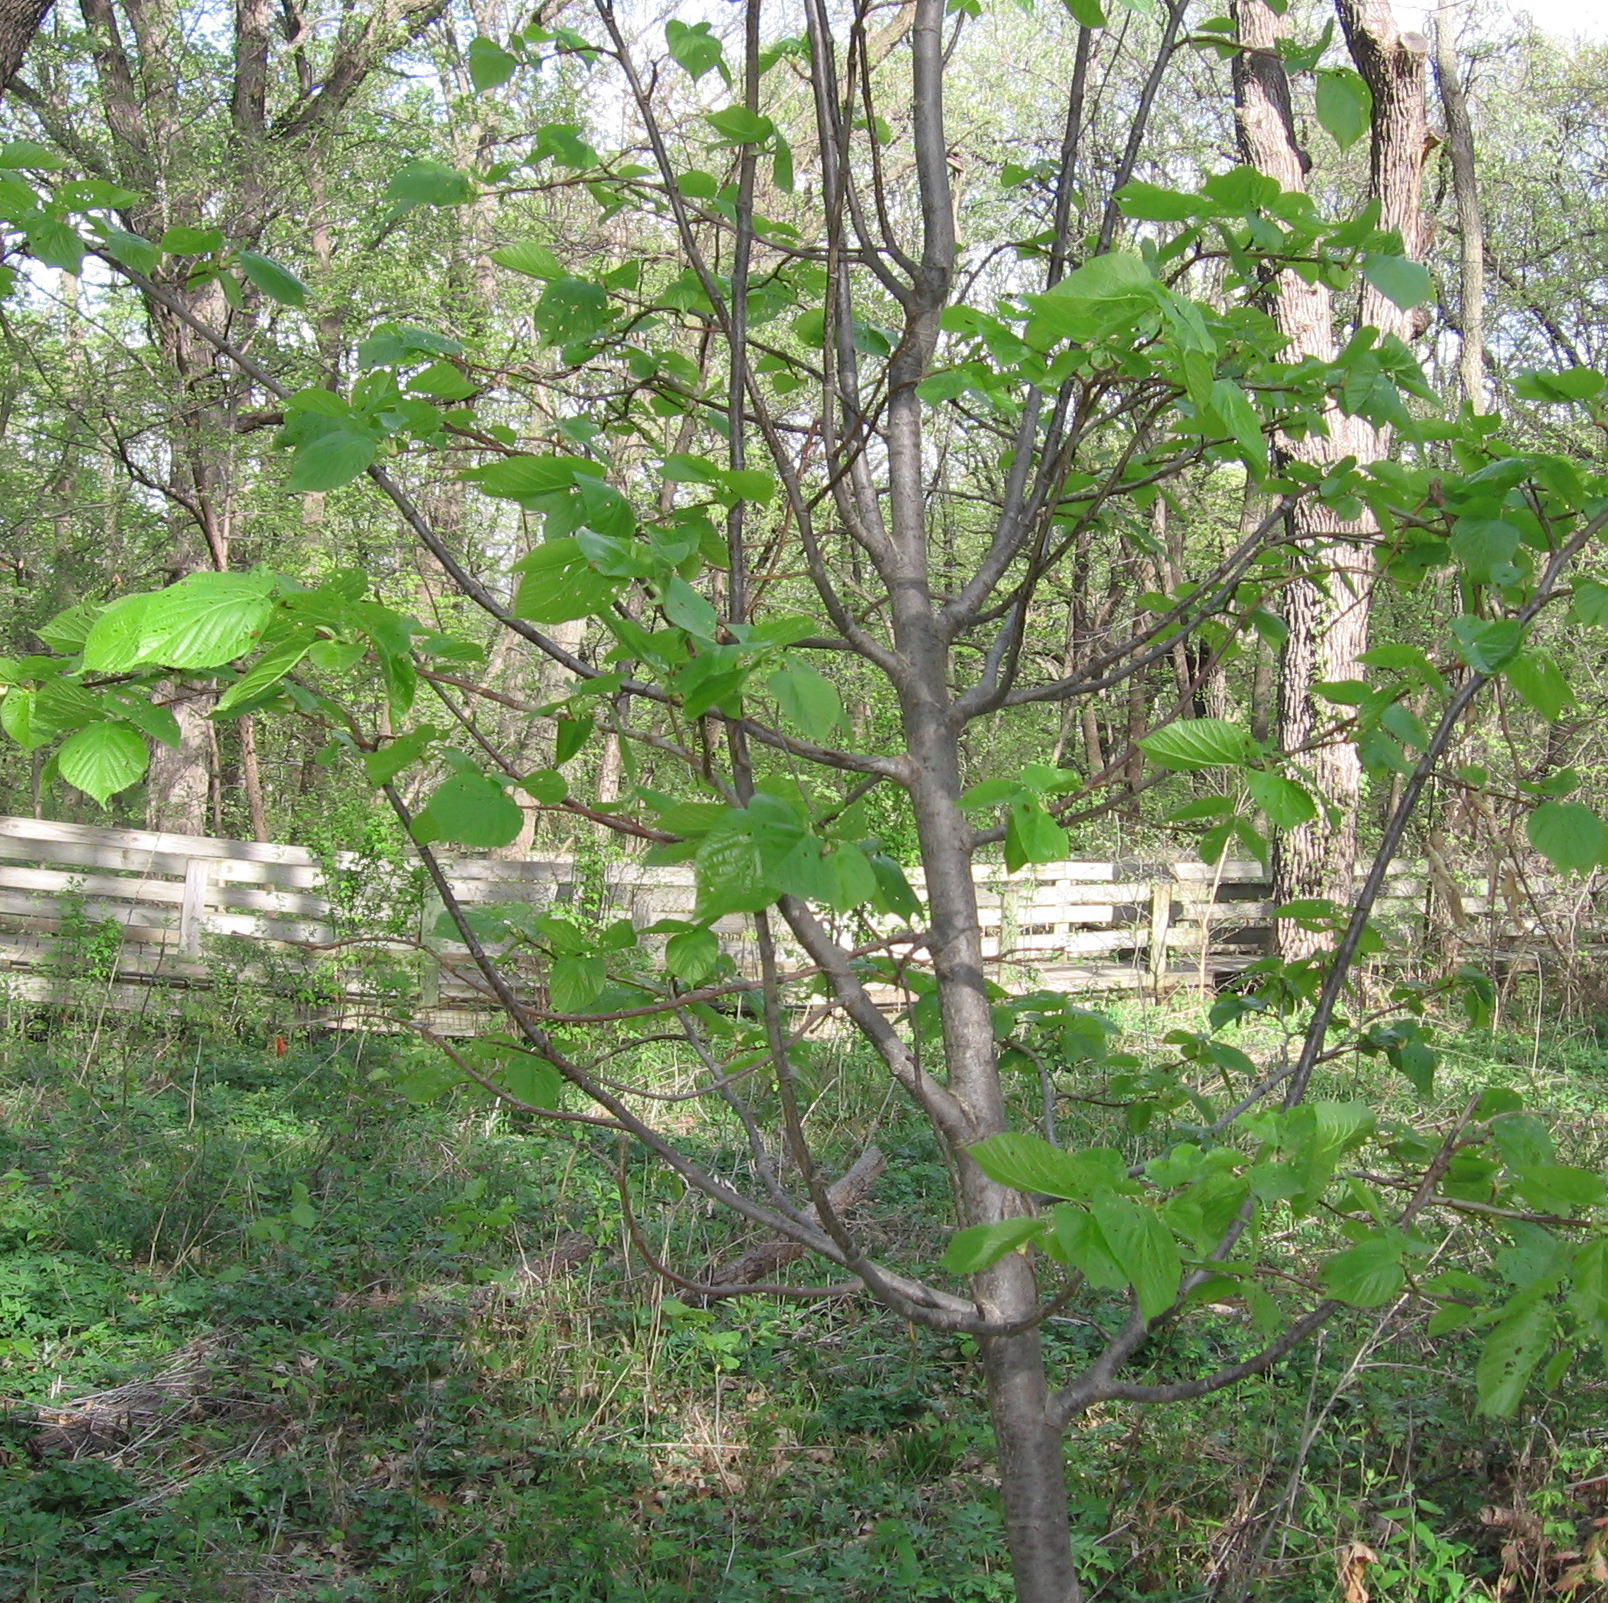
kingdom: Plantae
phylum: Tracheophyta
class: Magnoliopsida
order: Malvales
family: Malvaceae
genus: Tilia
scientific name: Tilia americana
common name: Basswood
